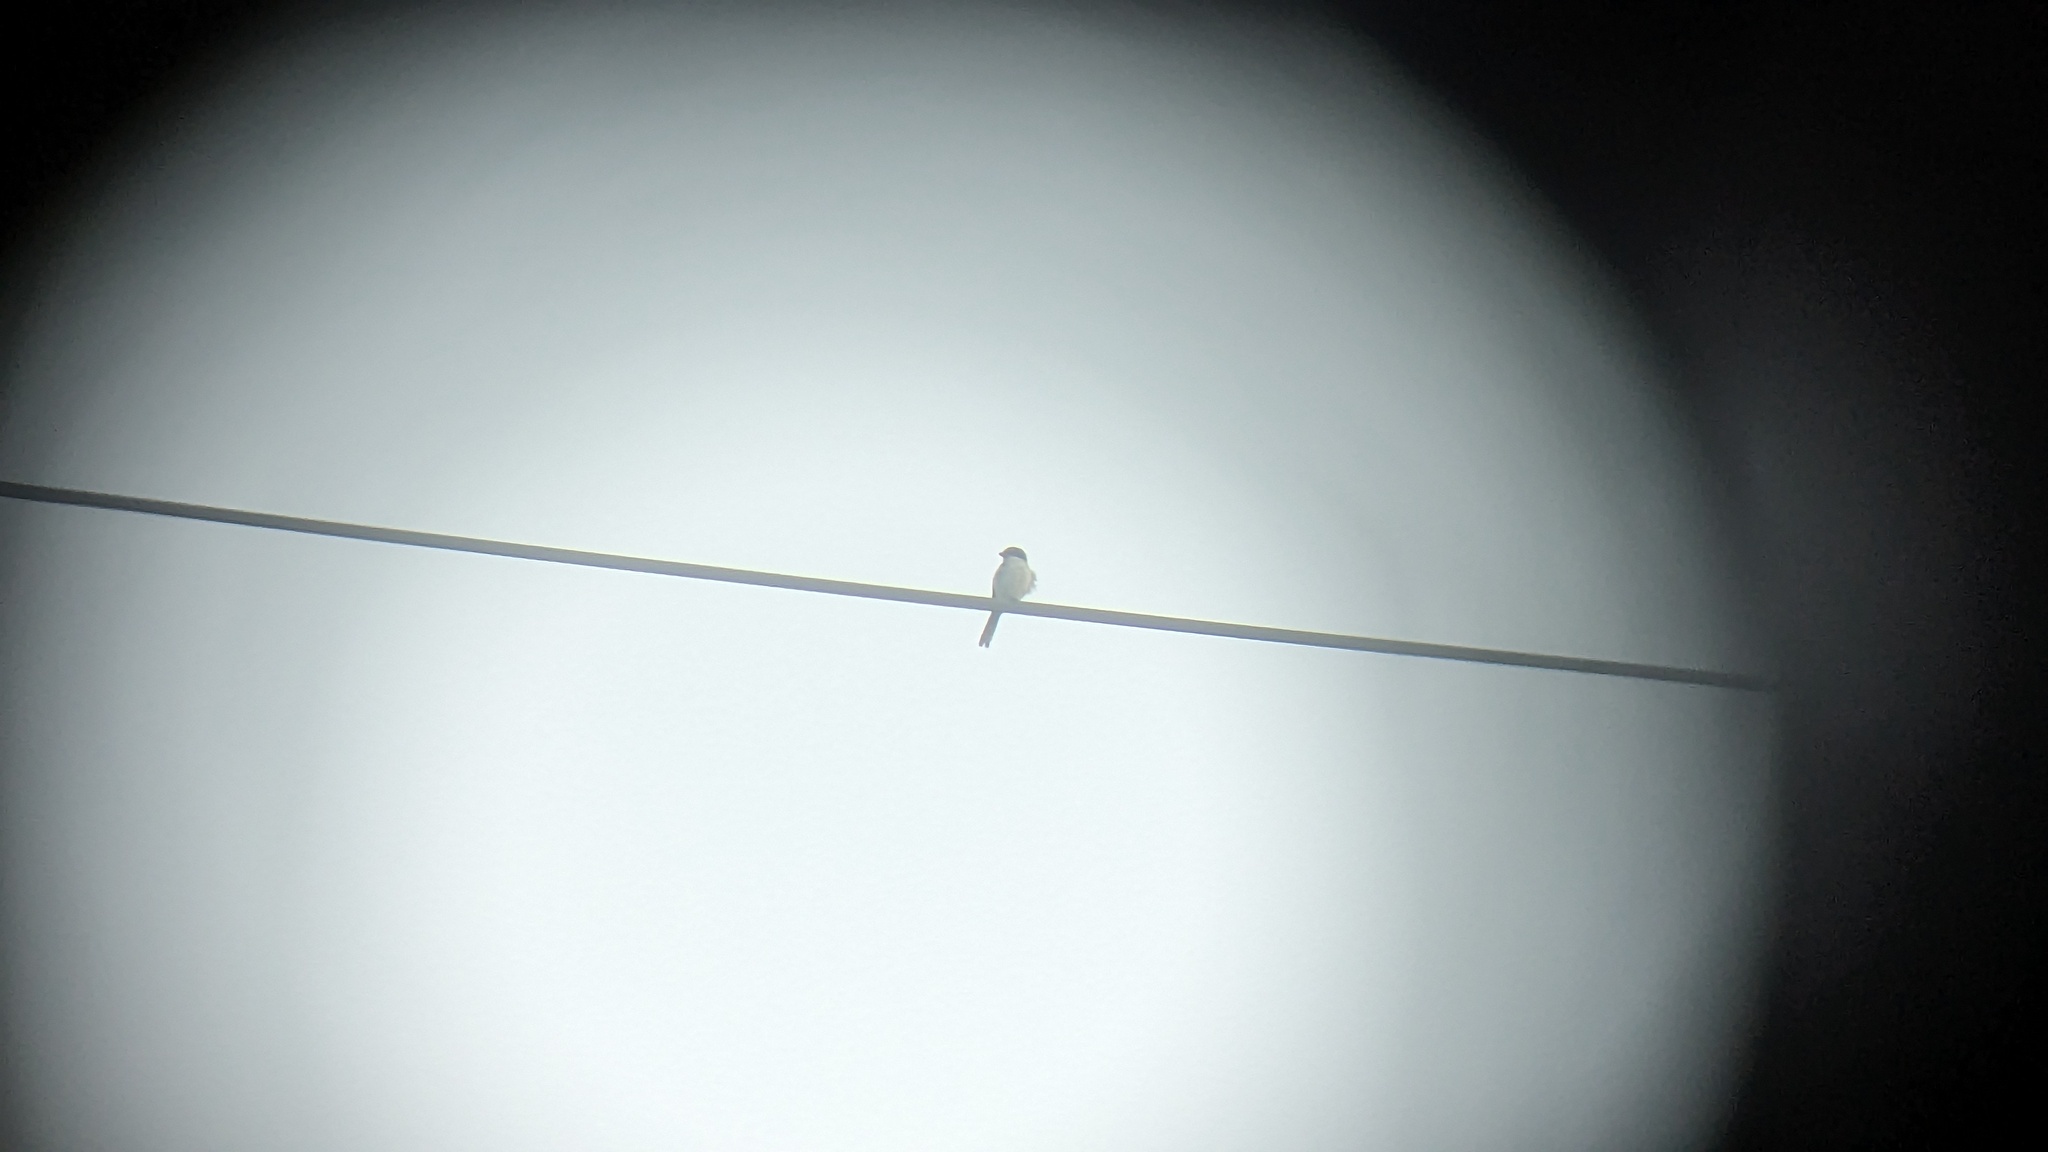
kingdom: Animalia
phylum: Chordata
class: Aves
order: Passeriformes
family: Laniidae
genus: Lanius
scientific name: Lanius ludovicianus
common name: Loggerhead shrike
